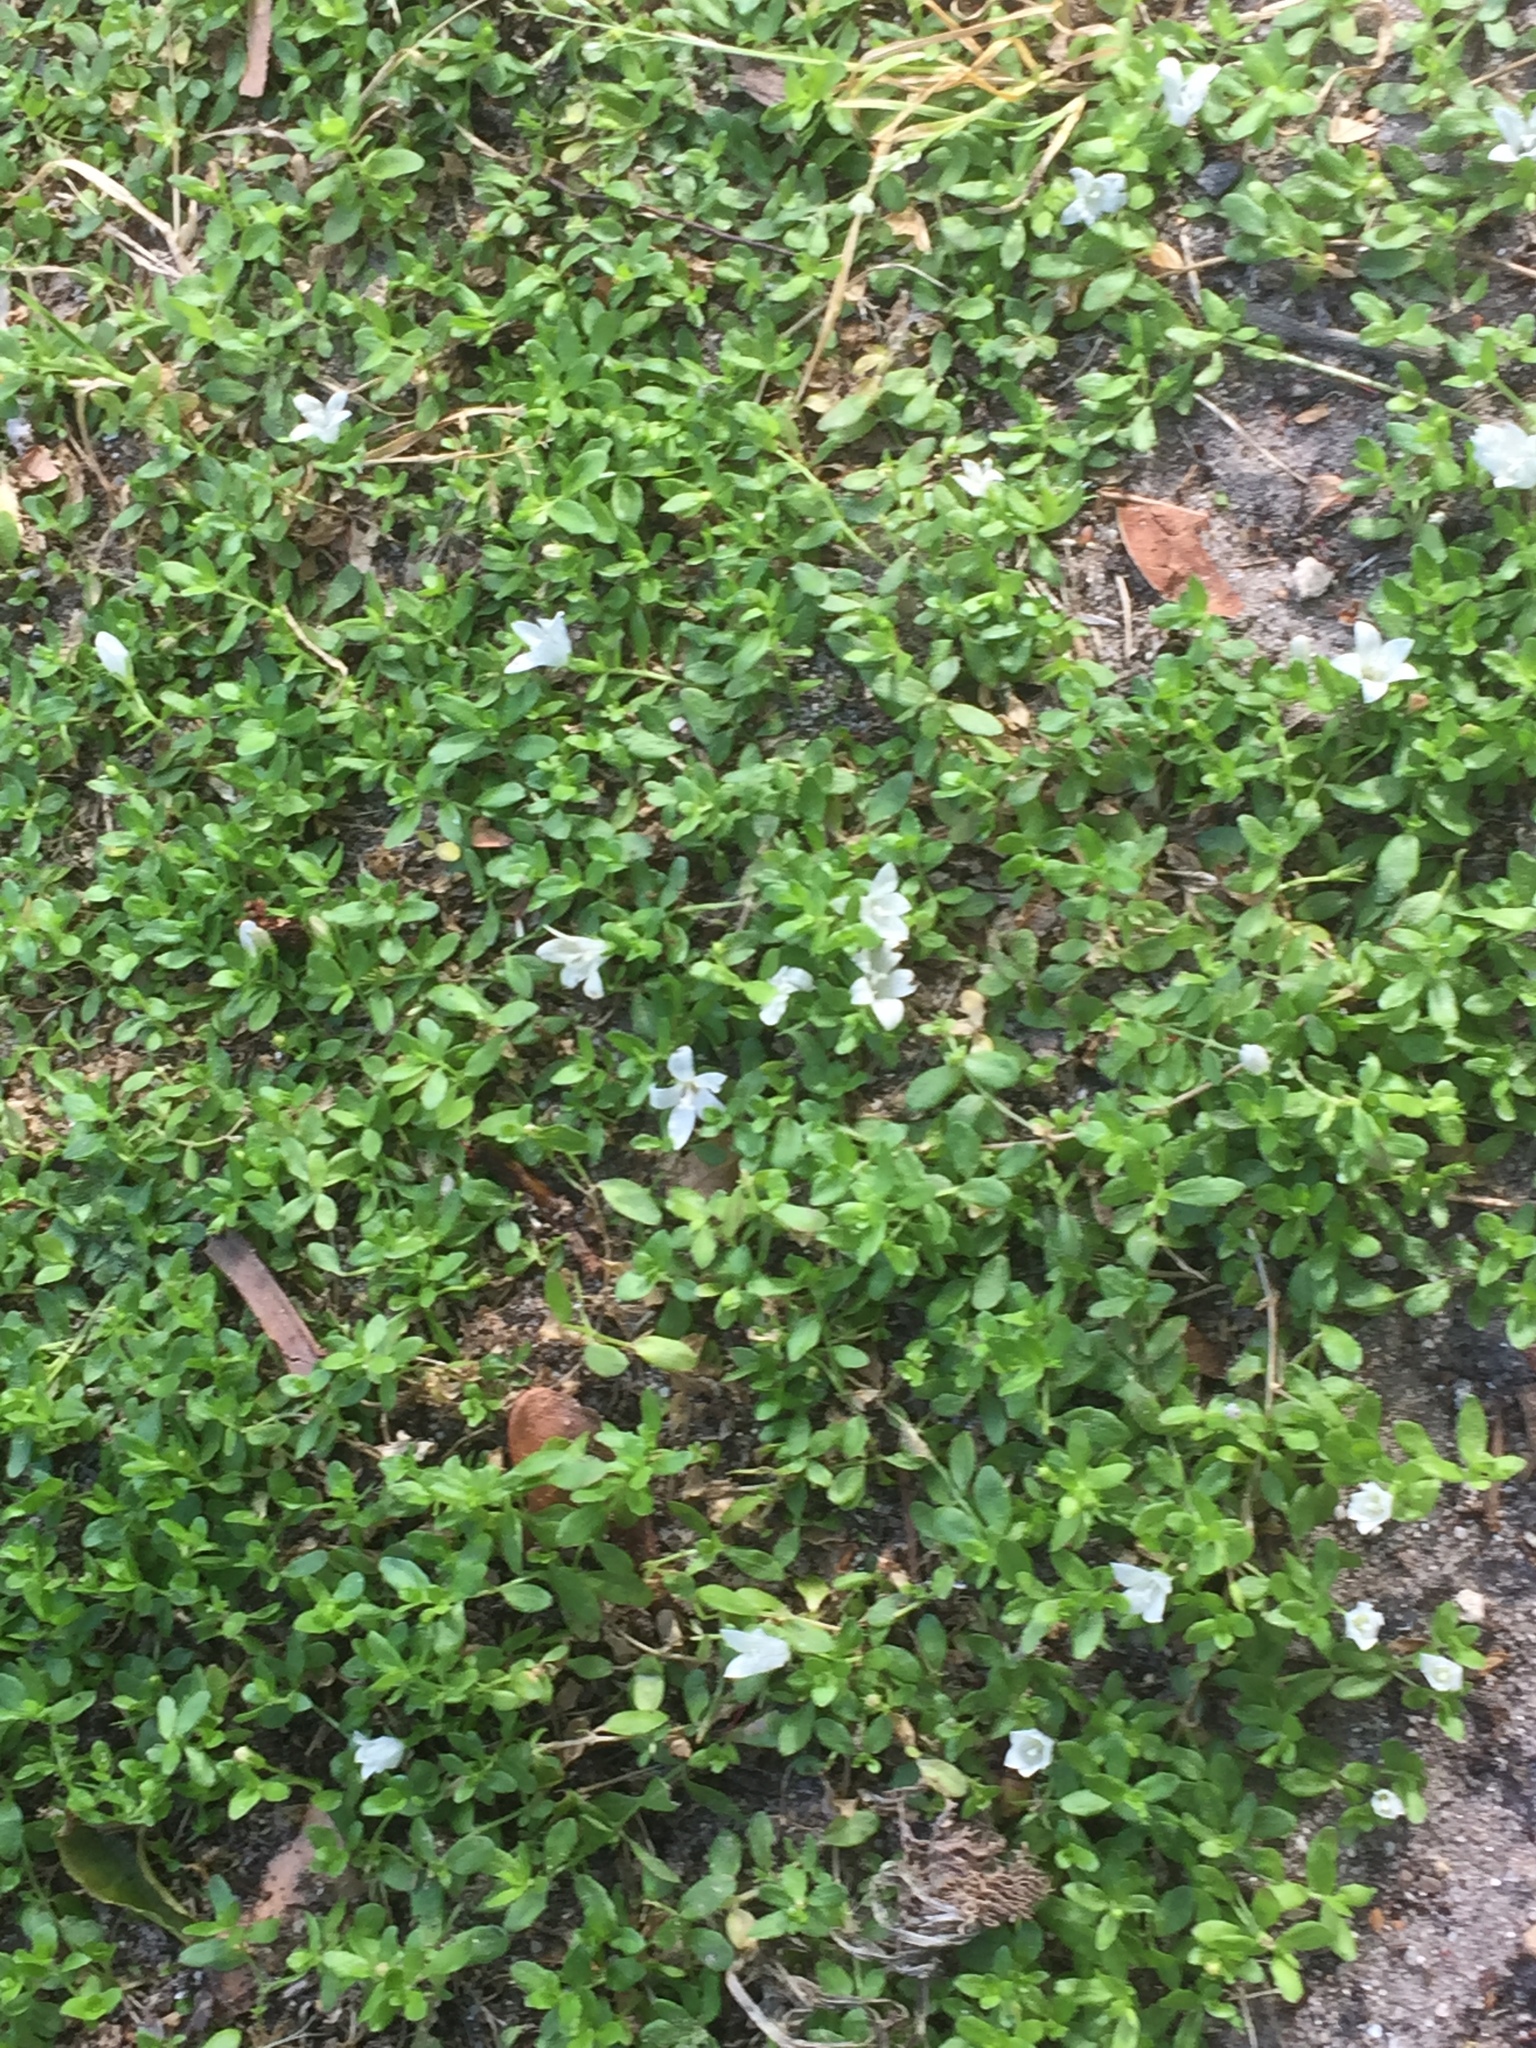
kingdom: Plantae
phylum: Tracheophyta
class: Magnoliopsida
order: Asterales
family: Campanulaceae
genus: Wahlenbergia
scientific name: Wahlenbergia procumbens
